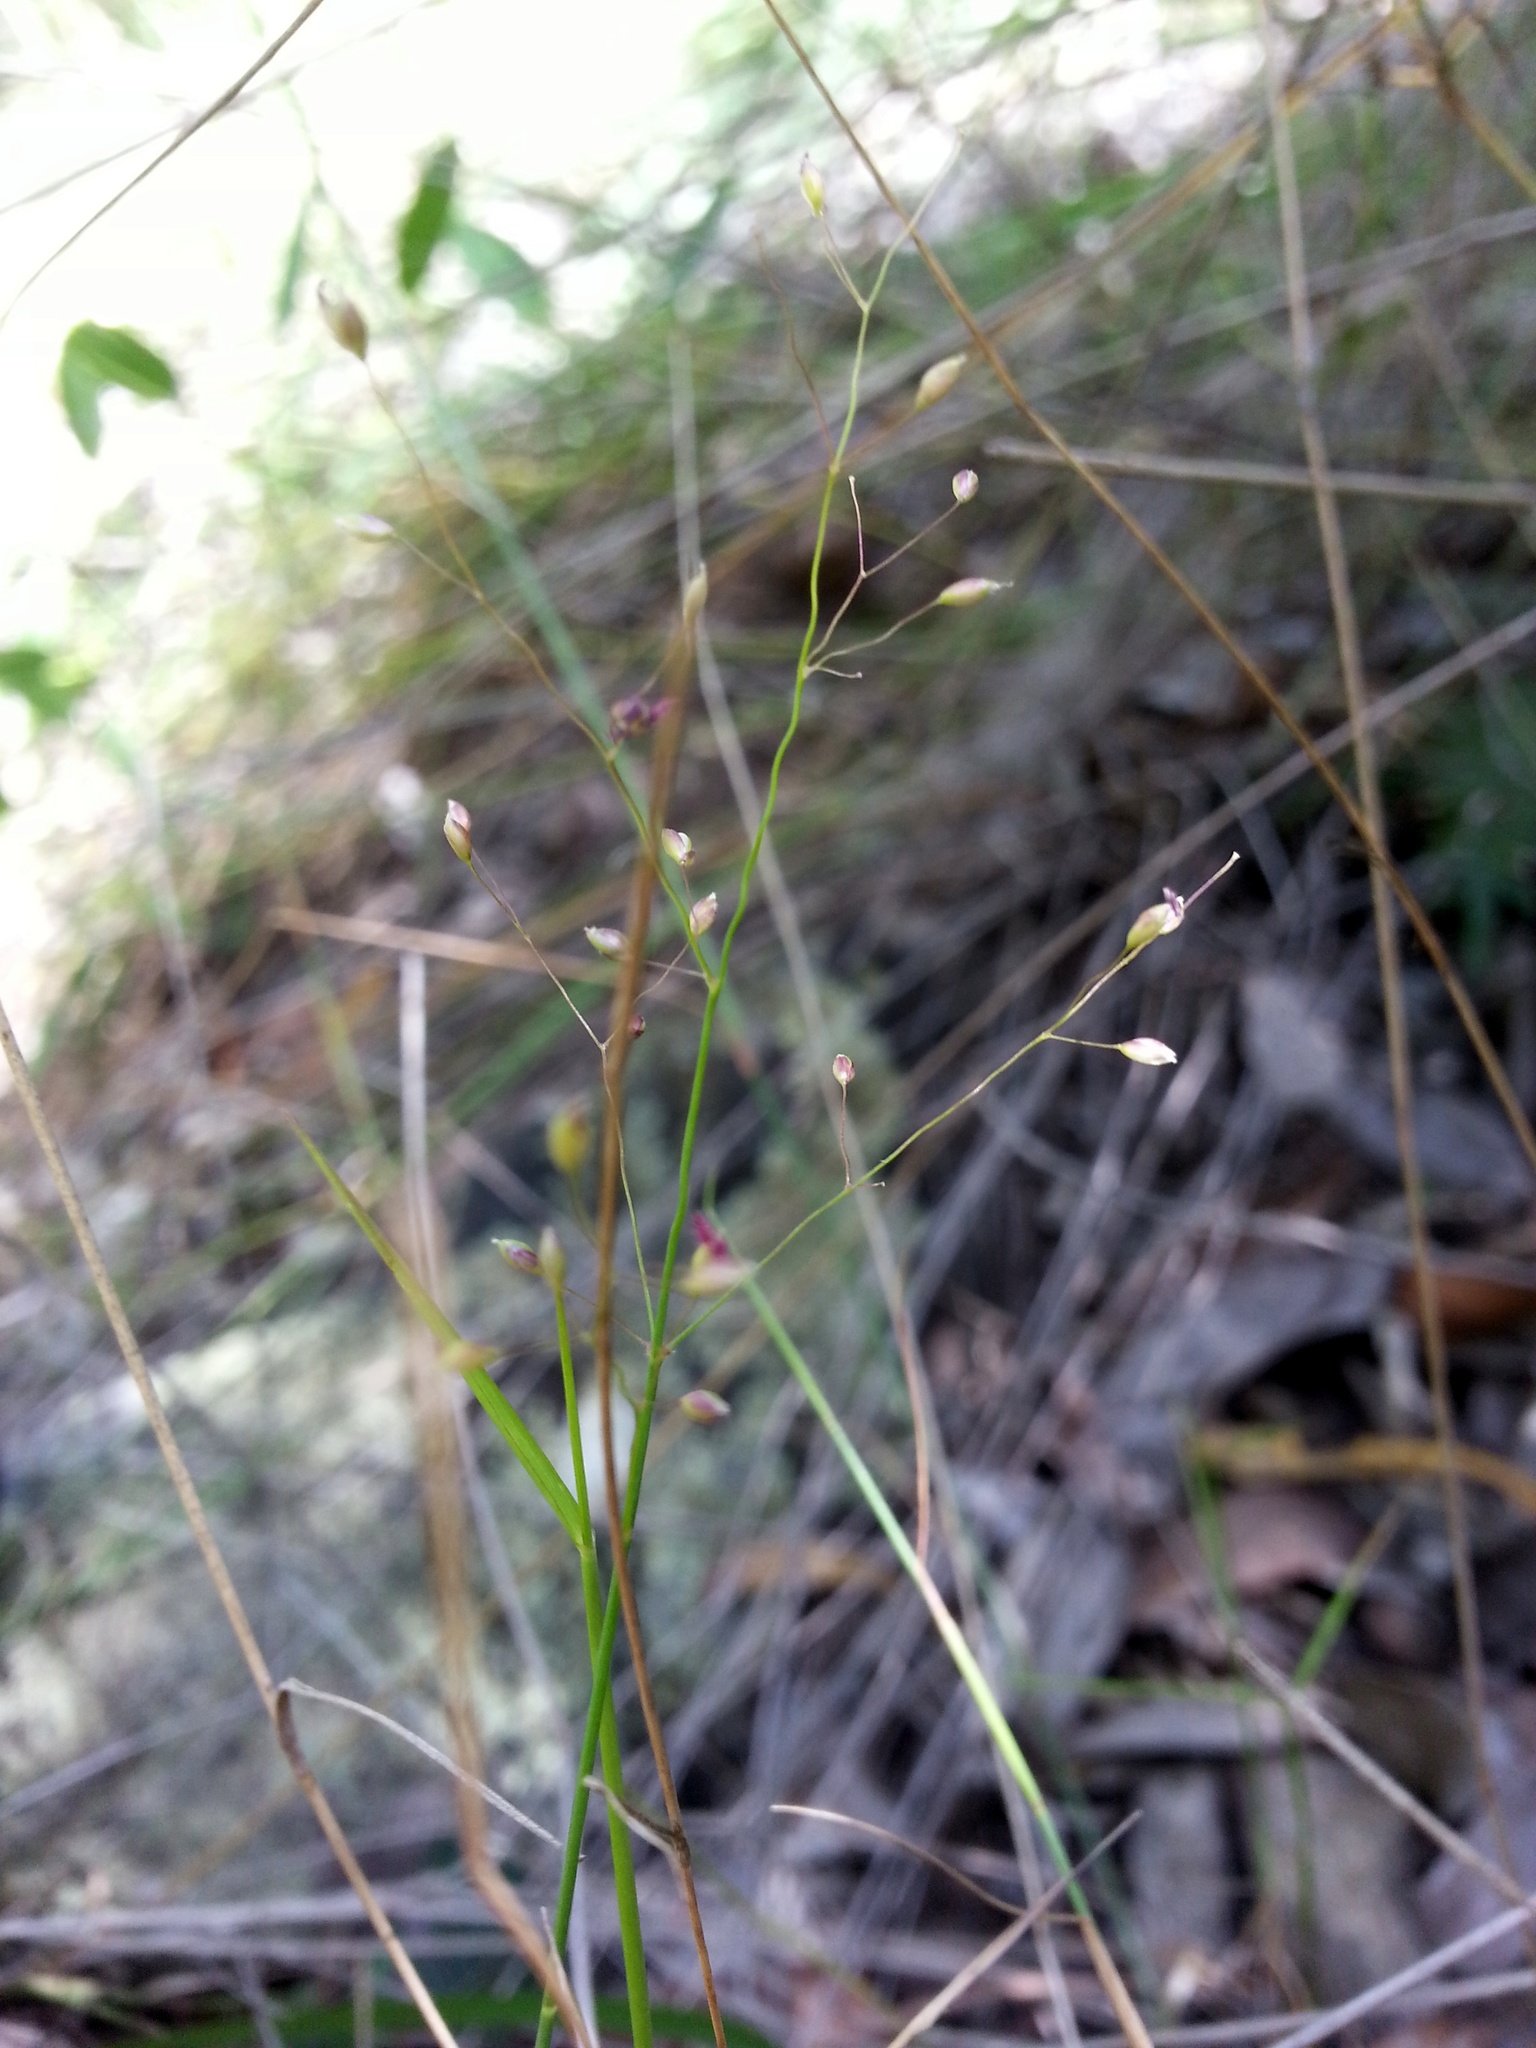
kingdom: Plantae
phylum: Tracheophyta
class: Liliopsida
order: Poales
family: Poaceae
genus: Panicum
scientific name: Panicum ibitense
